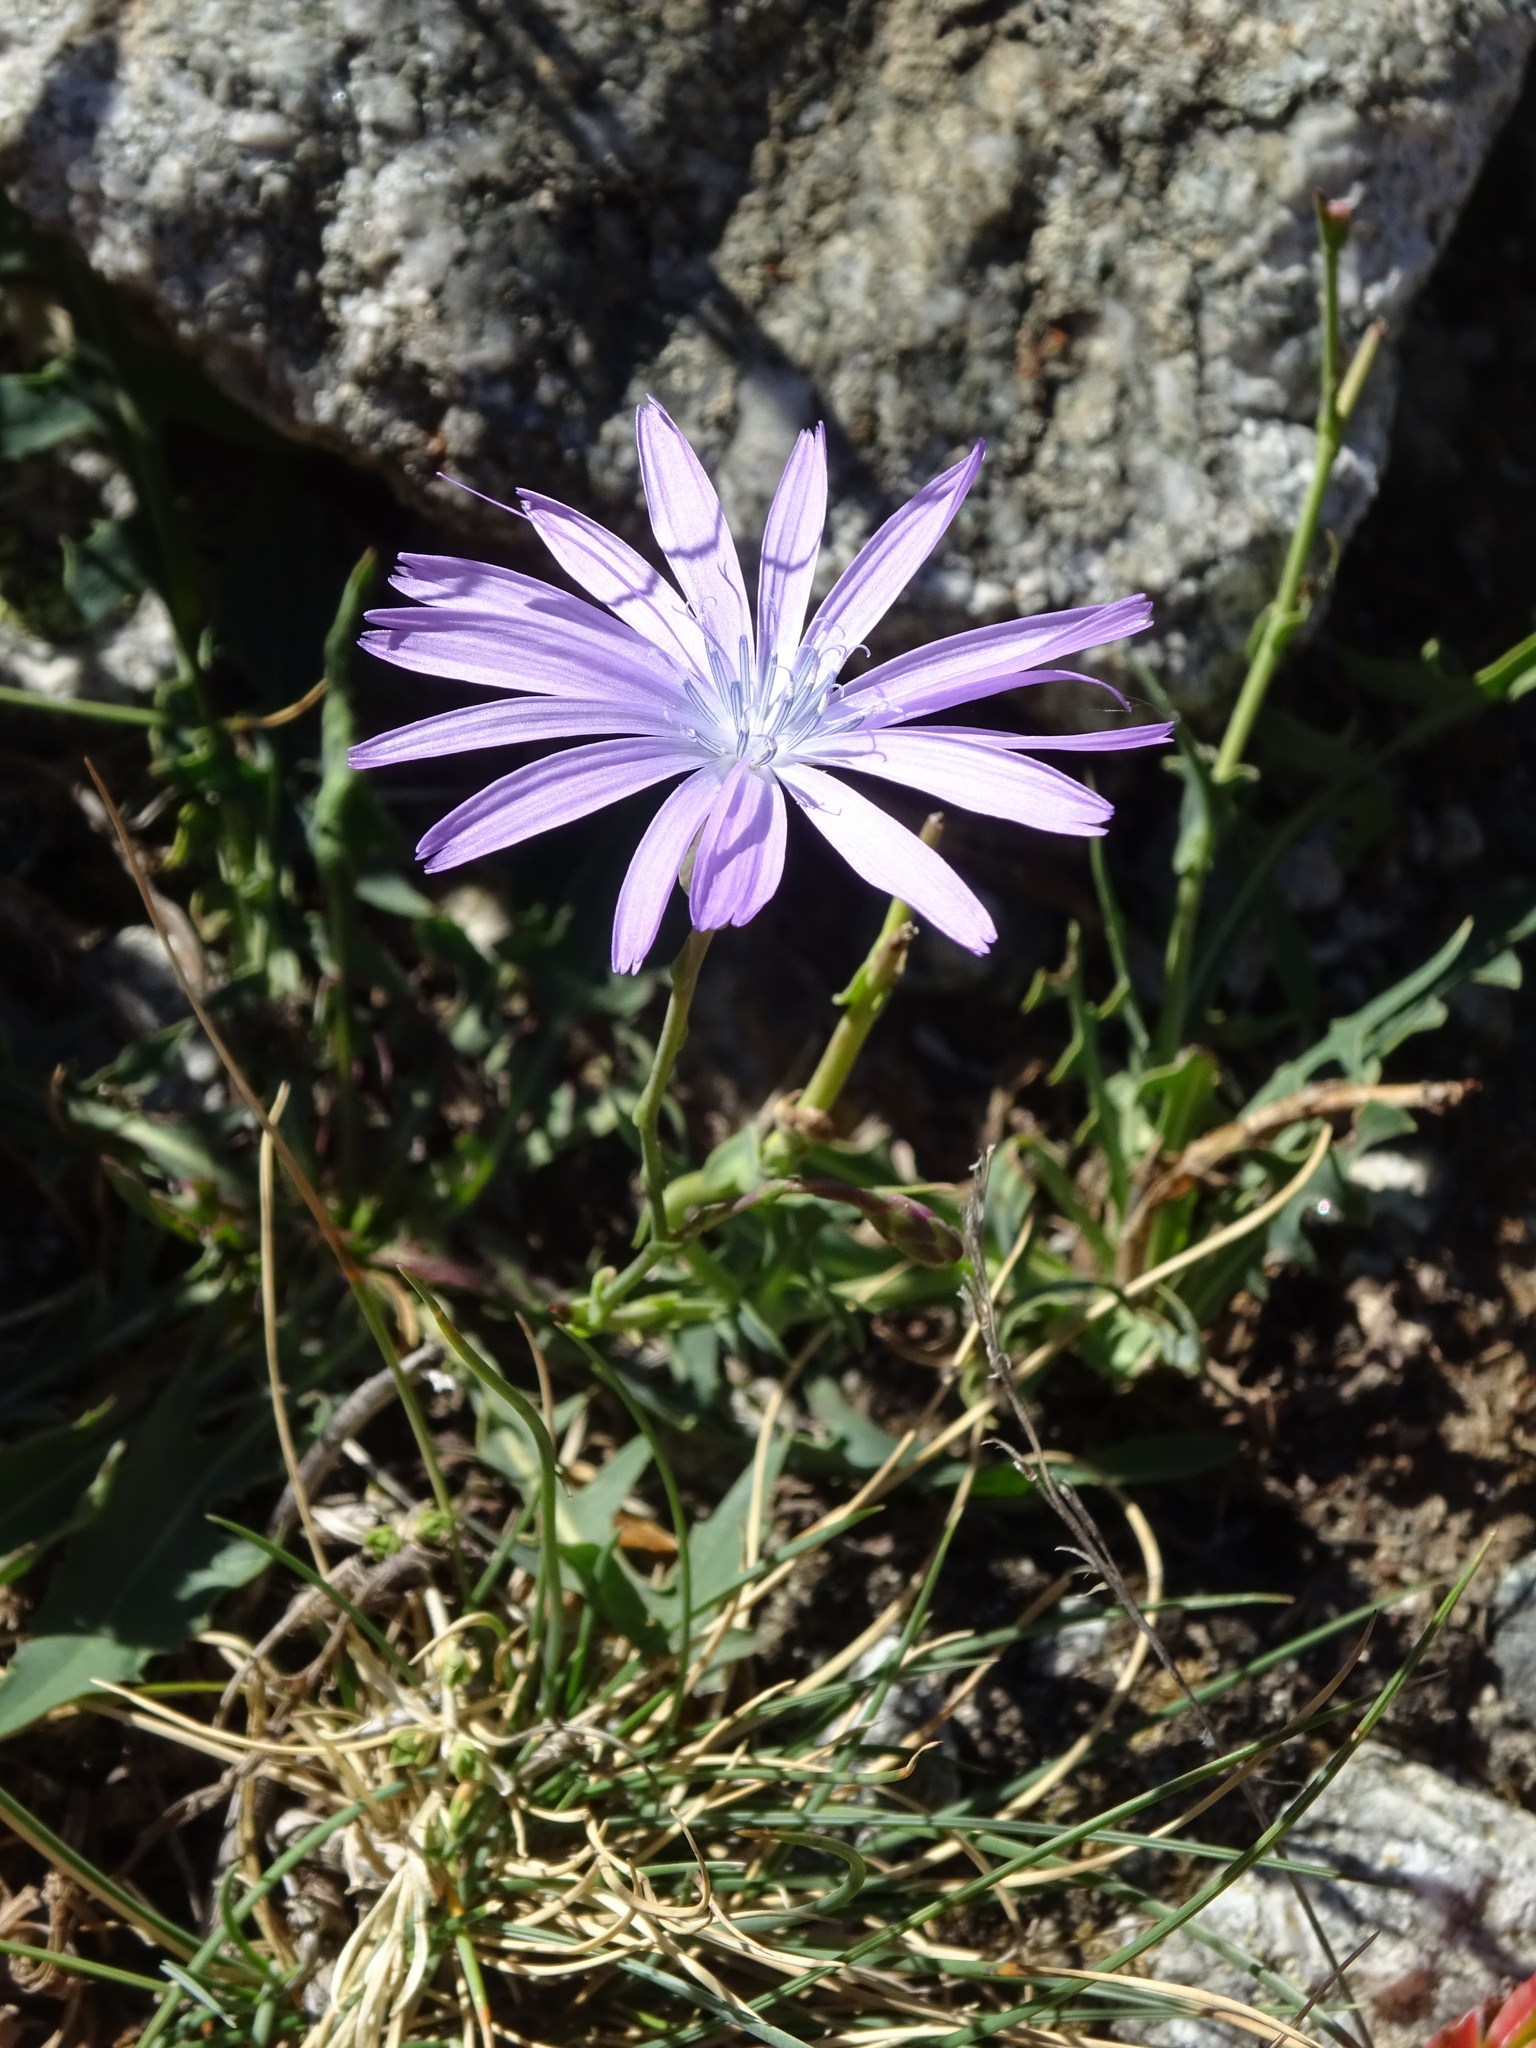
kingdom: Plantae
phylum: Tracheophyta
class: Magnoliopsida
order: Asterales
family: Asteraceae
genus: Lactuca
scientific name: Lactuca perennis
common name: Mountain lettuce
